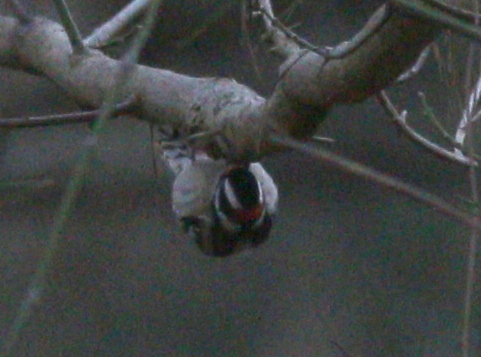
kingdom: Animalia
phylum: Chordata
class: Aves
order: Piciformes
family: Picidae
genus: Dryobates
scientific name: Dryobates pubescens
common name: Downy woodpecker
